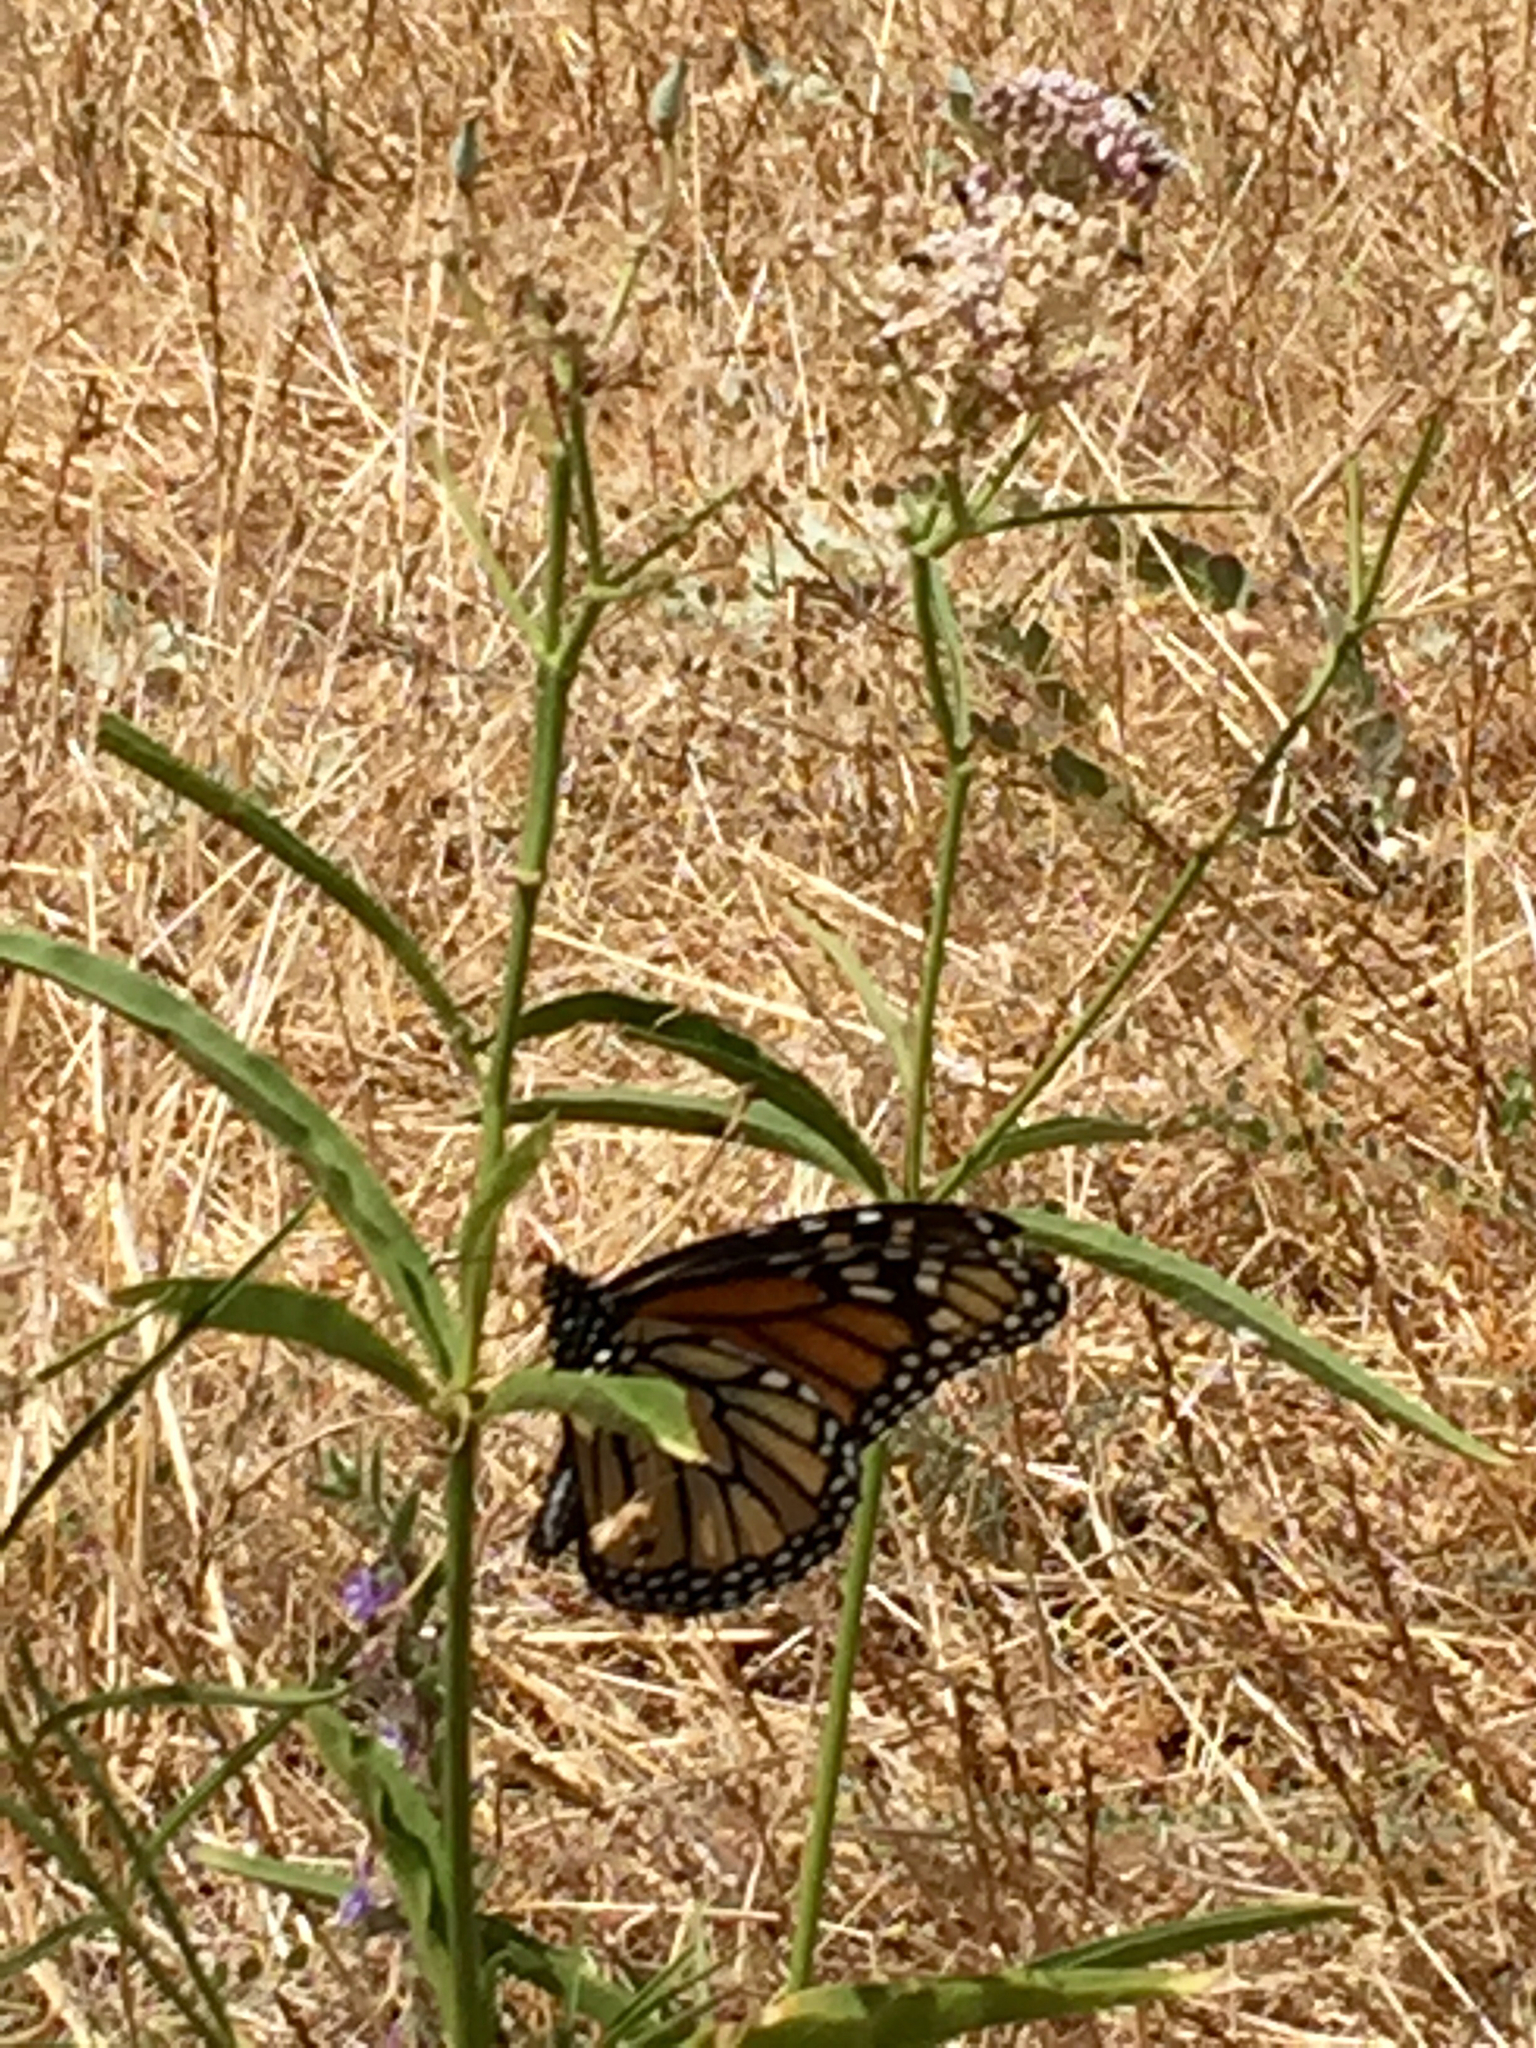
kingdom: Animalia
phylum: Arthropoda
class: Insecta
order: Lepidoptera
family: Nymphalidae
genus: Danaus
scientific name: Danaus plexippus
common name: Monarch
